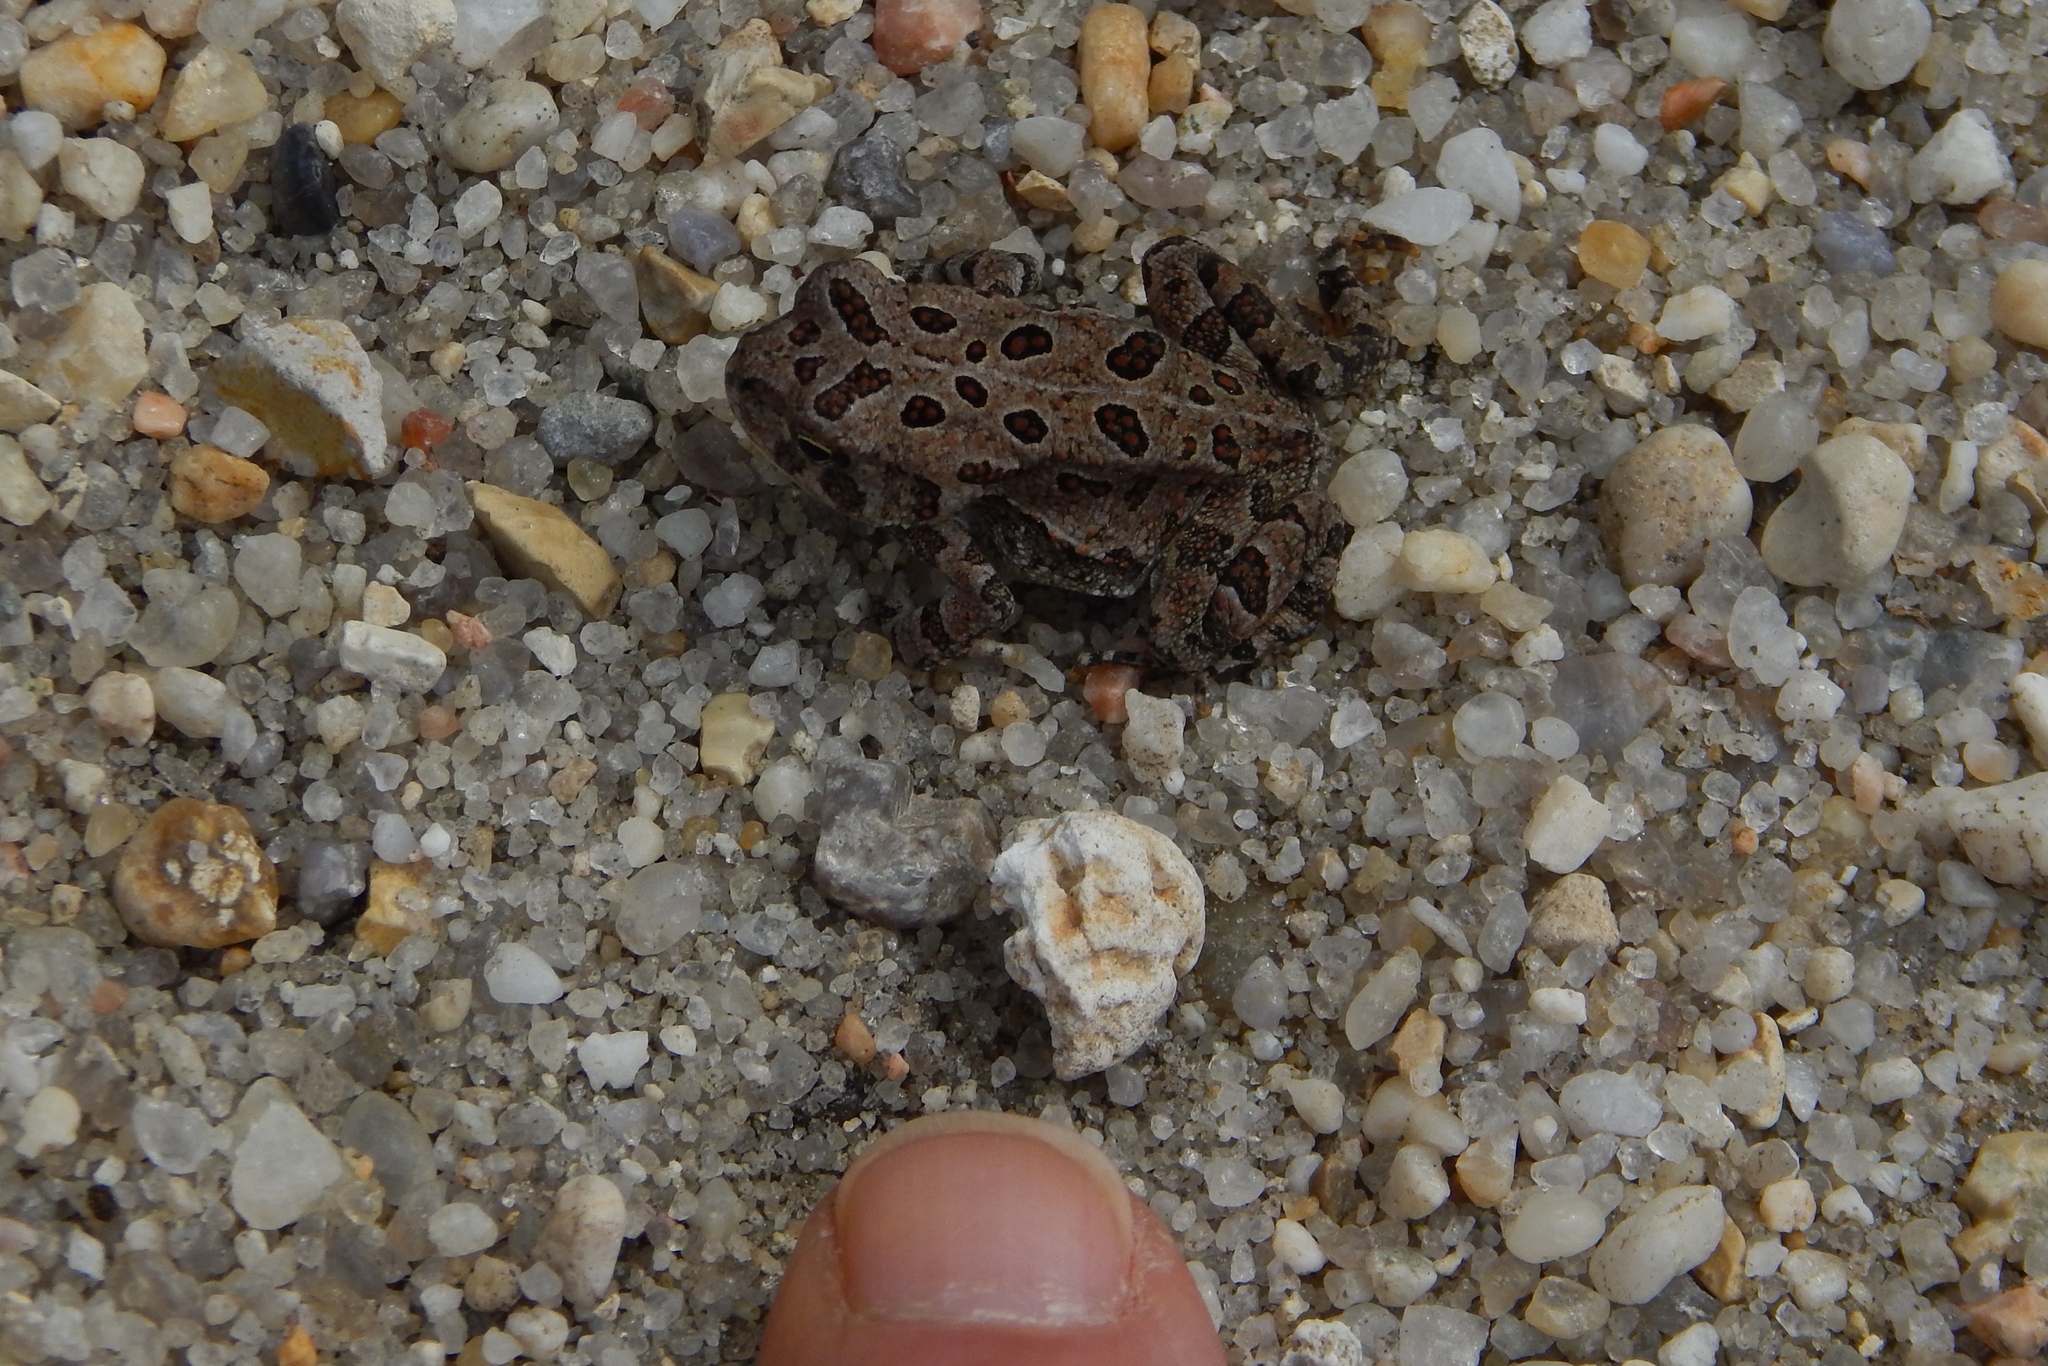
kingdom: Animalia
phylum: Chordata
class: Amphibia
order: Anura
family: Bufonidae
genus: Anaxyrus
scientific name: Anaxyrus fowleri
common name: Fowler's toad
